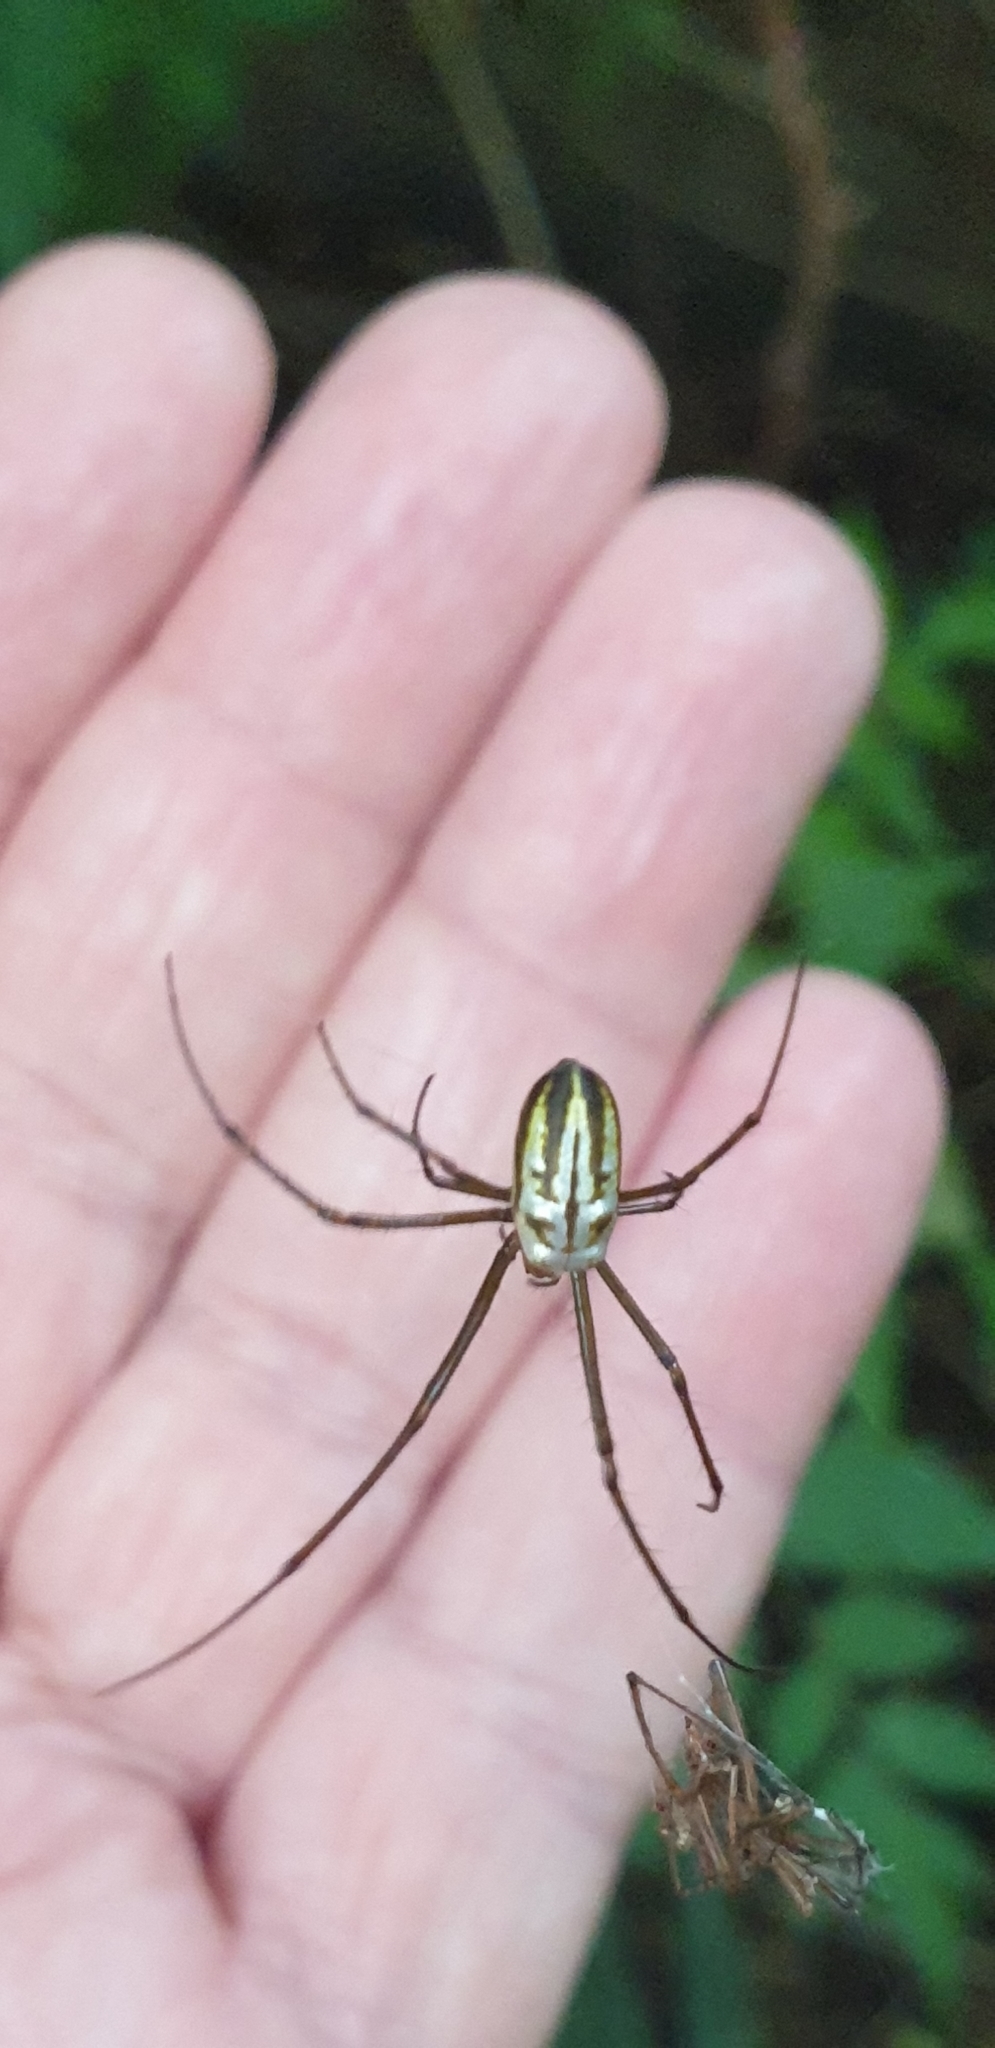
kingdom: Animalia
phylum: Arthropoda
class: Arachnida
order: Araneae
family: Tetragnathidae
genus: Leucauge
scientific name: Leucauge dromedaria
